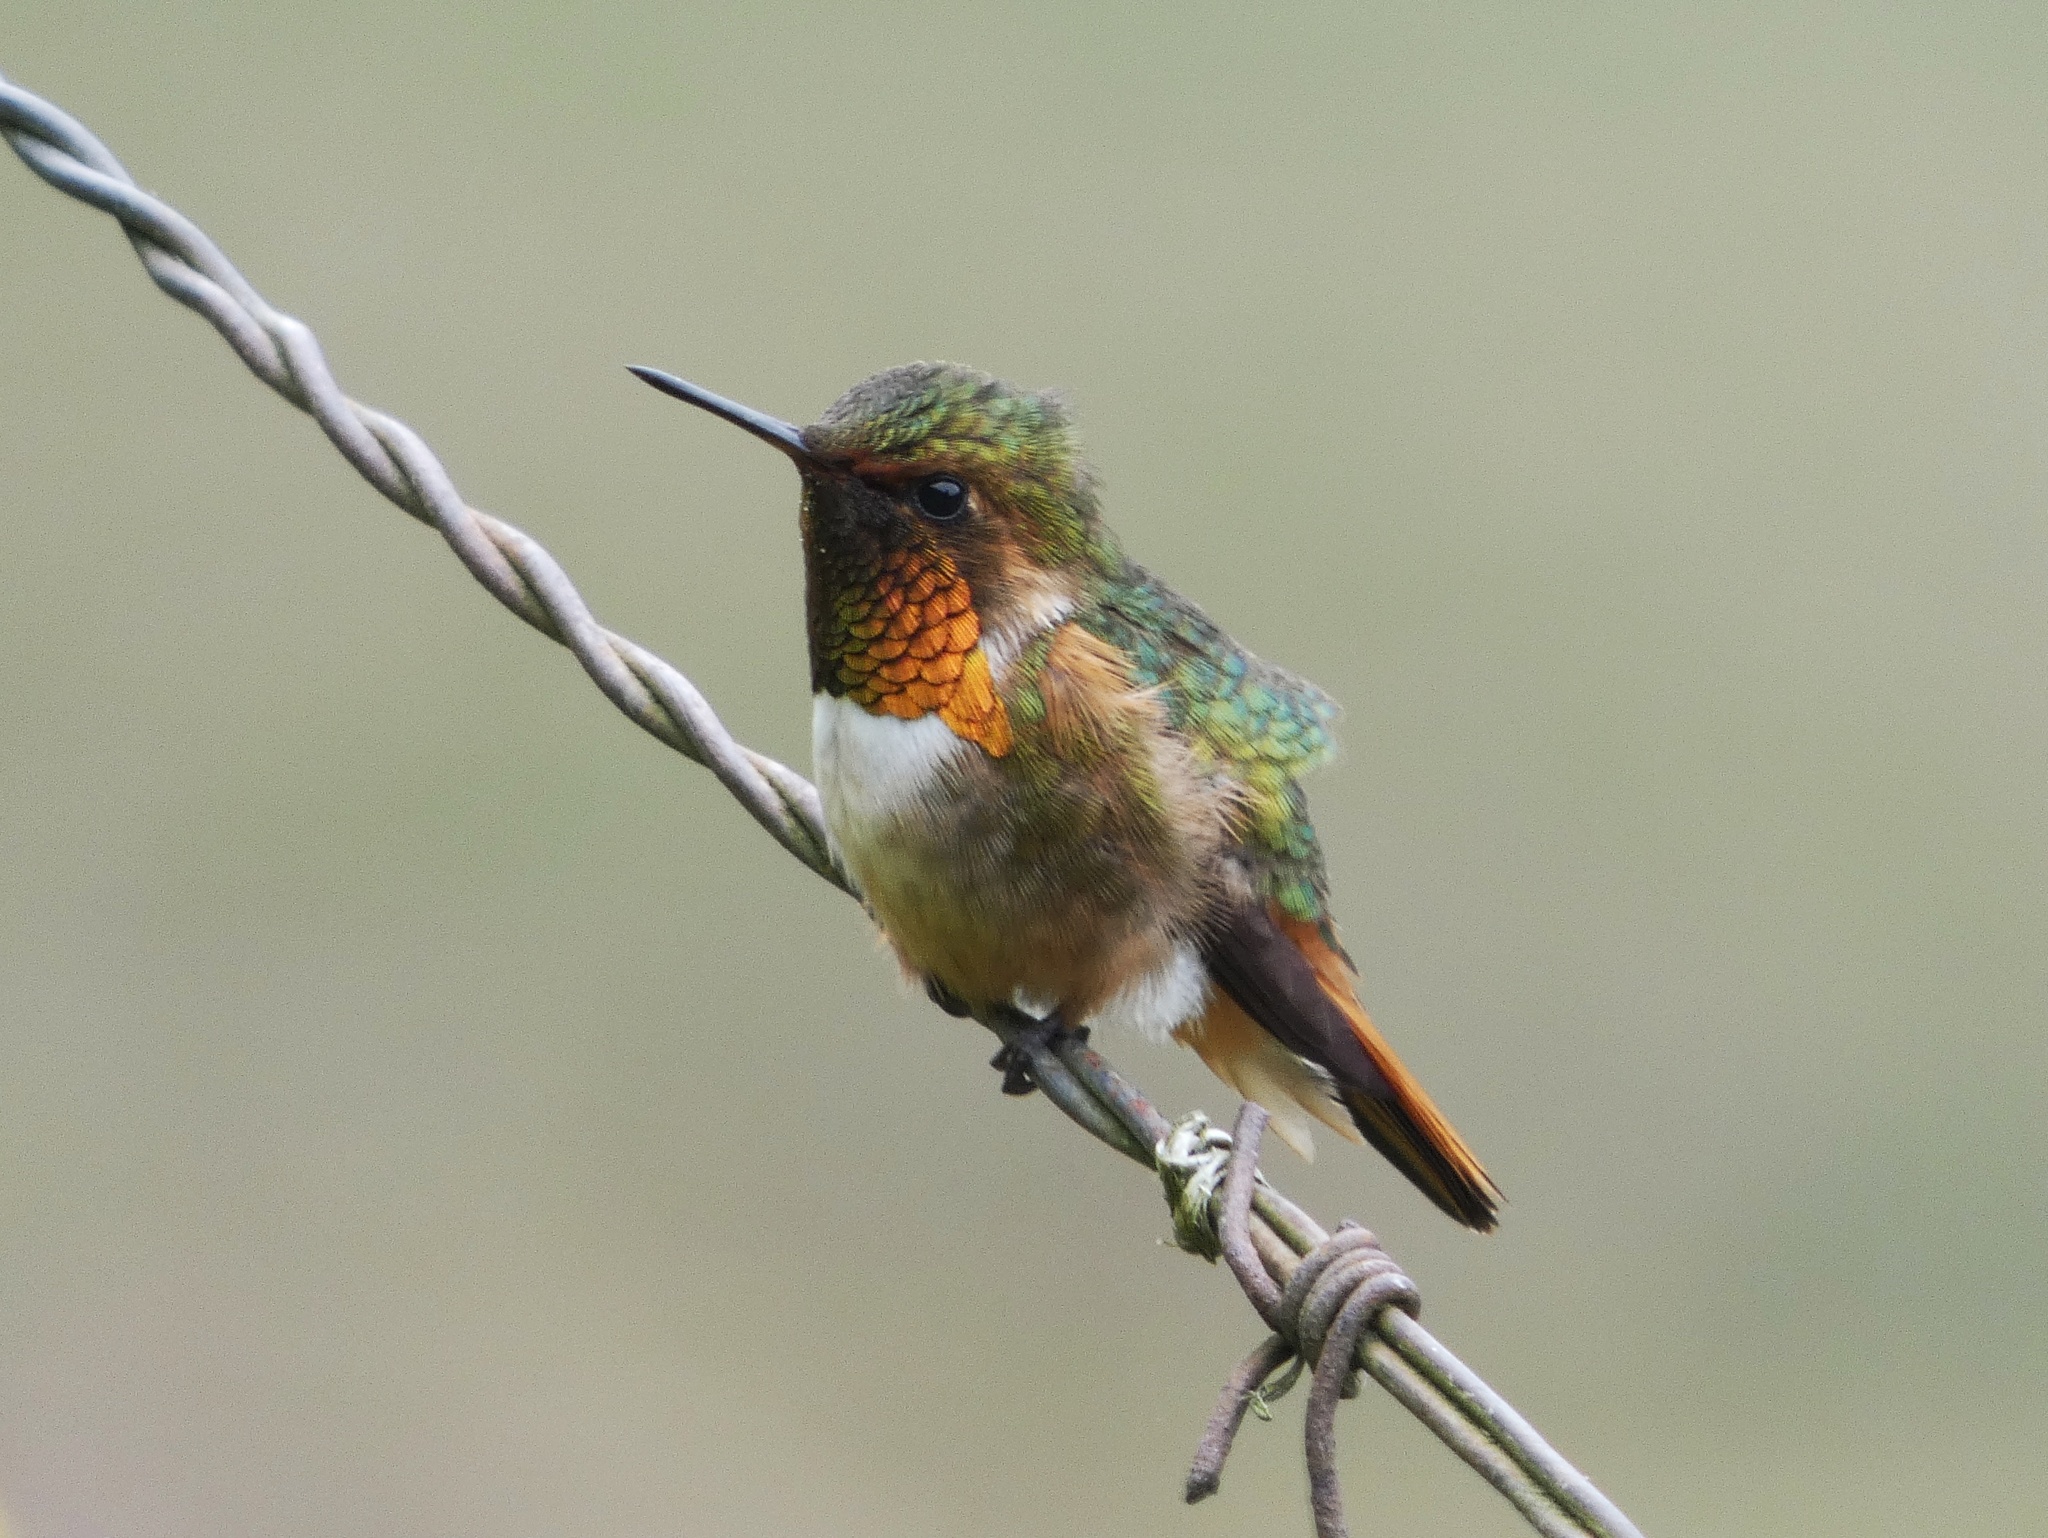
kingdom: Animalia
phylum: Chordata
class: Aves
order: Apodiformes
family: Trochilidae
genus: Selasphorus
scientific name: Selasphorus scintilla
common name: Scintillant hummingbird
